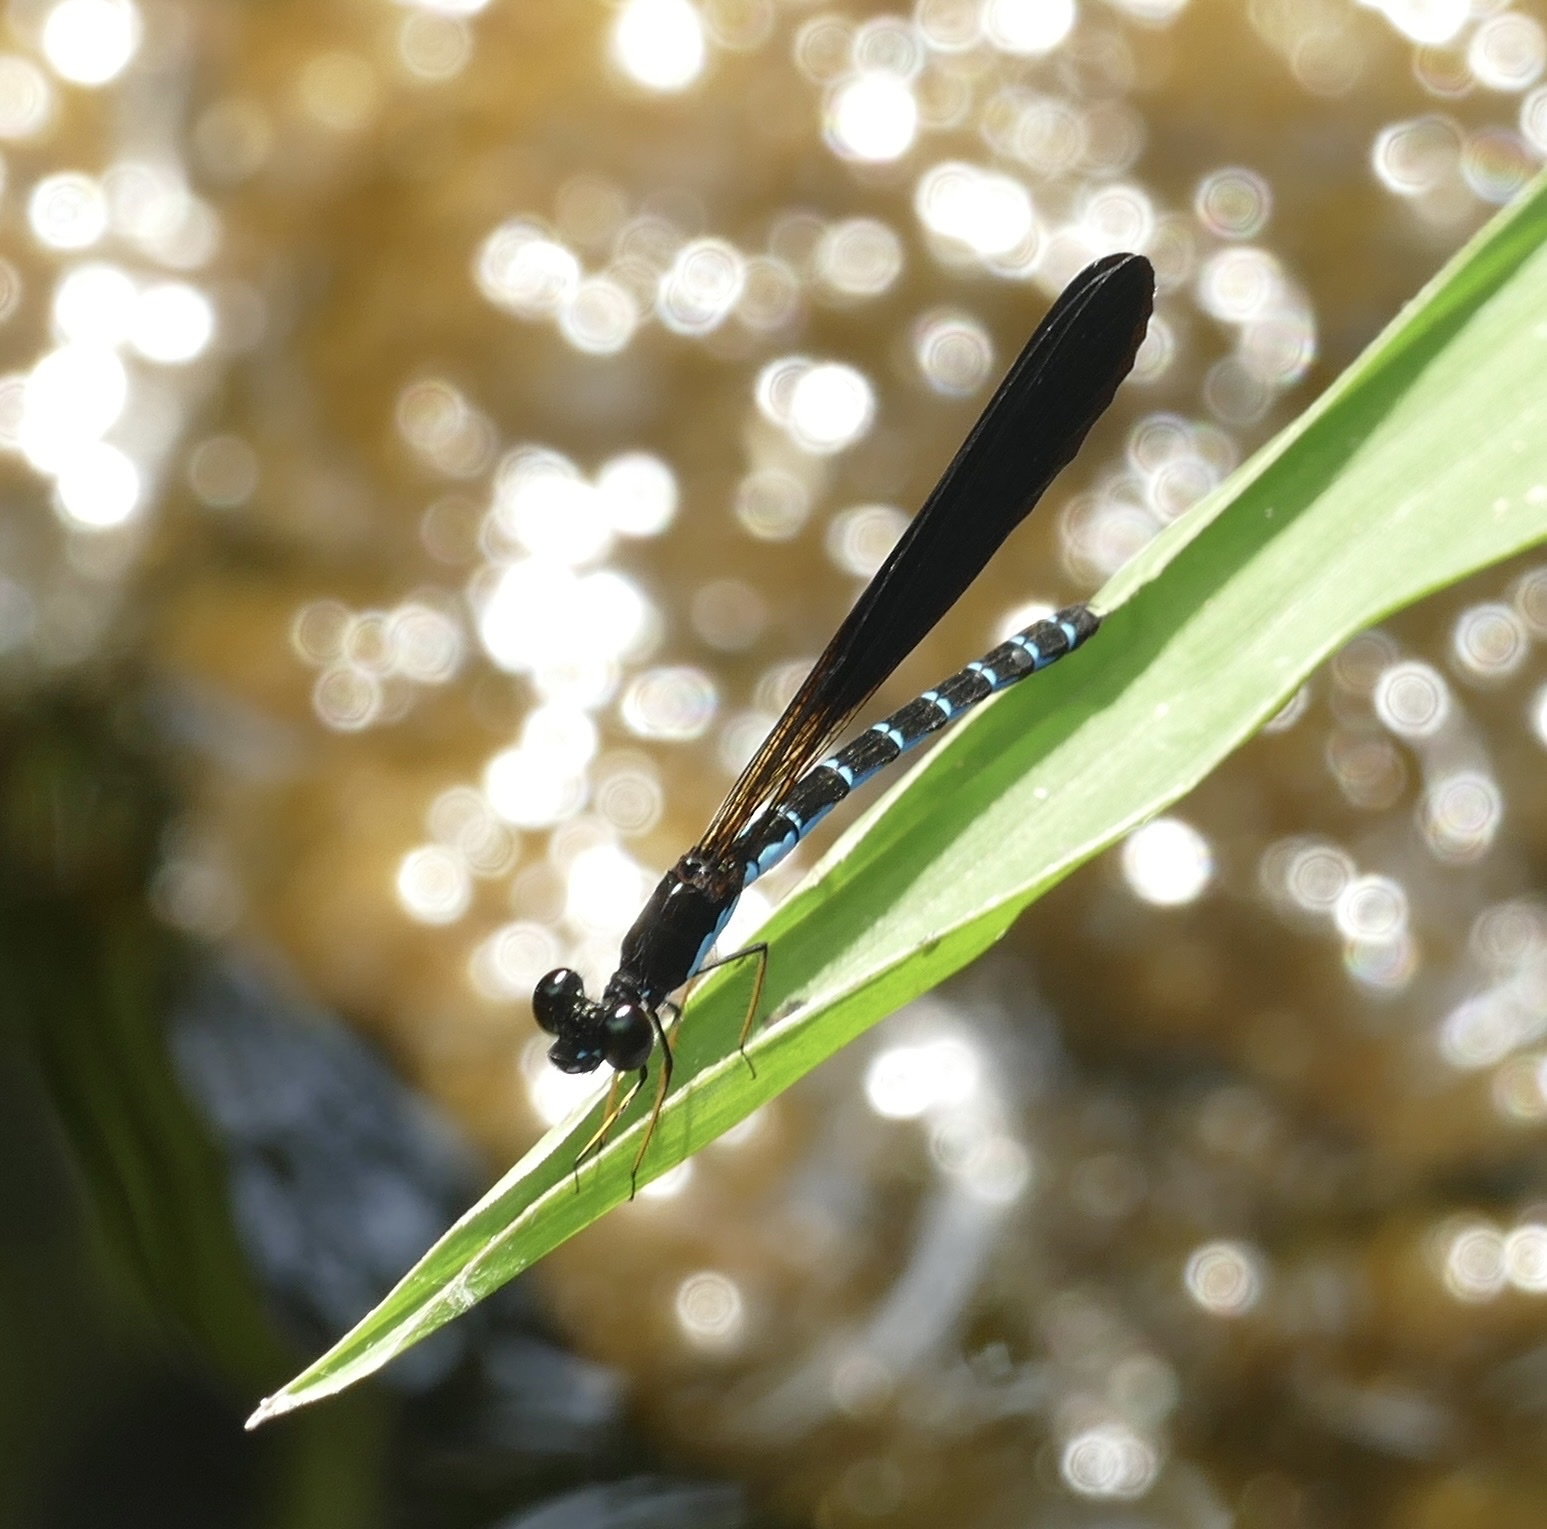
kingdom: Animalia
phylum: Arthropoda
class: Insecta
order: Odonata
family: Chlorocyphidae
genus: Rhinocypha
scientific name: Rhinocypha tincta
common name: Papuan jewel
